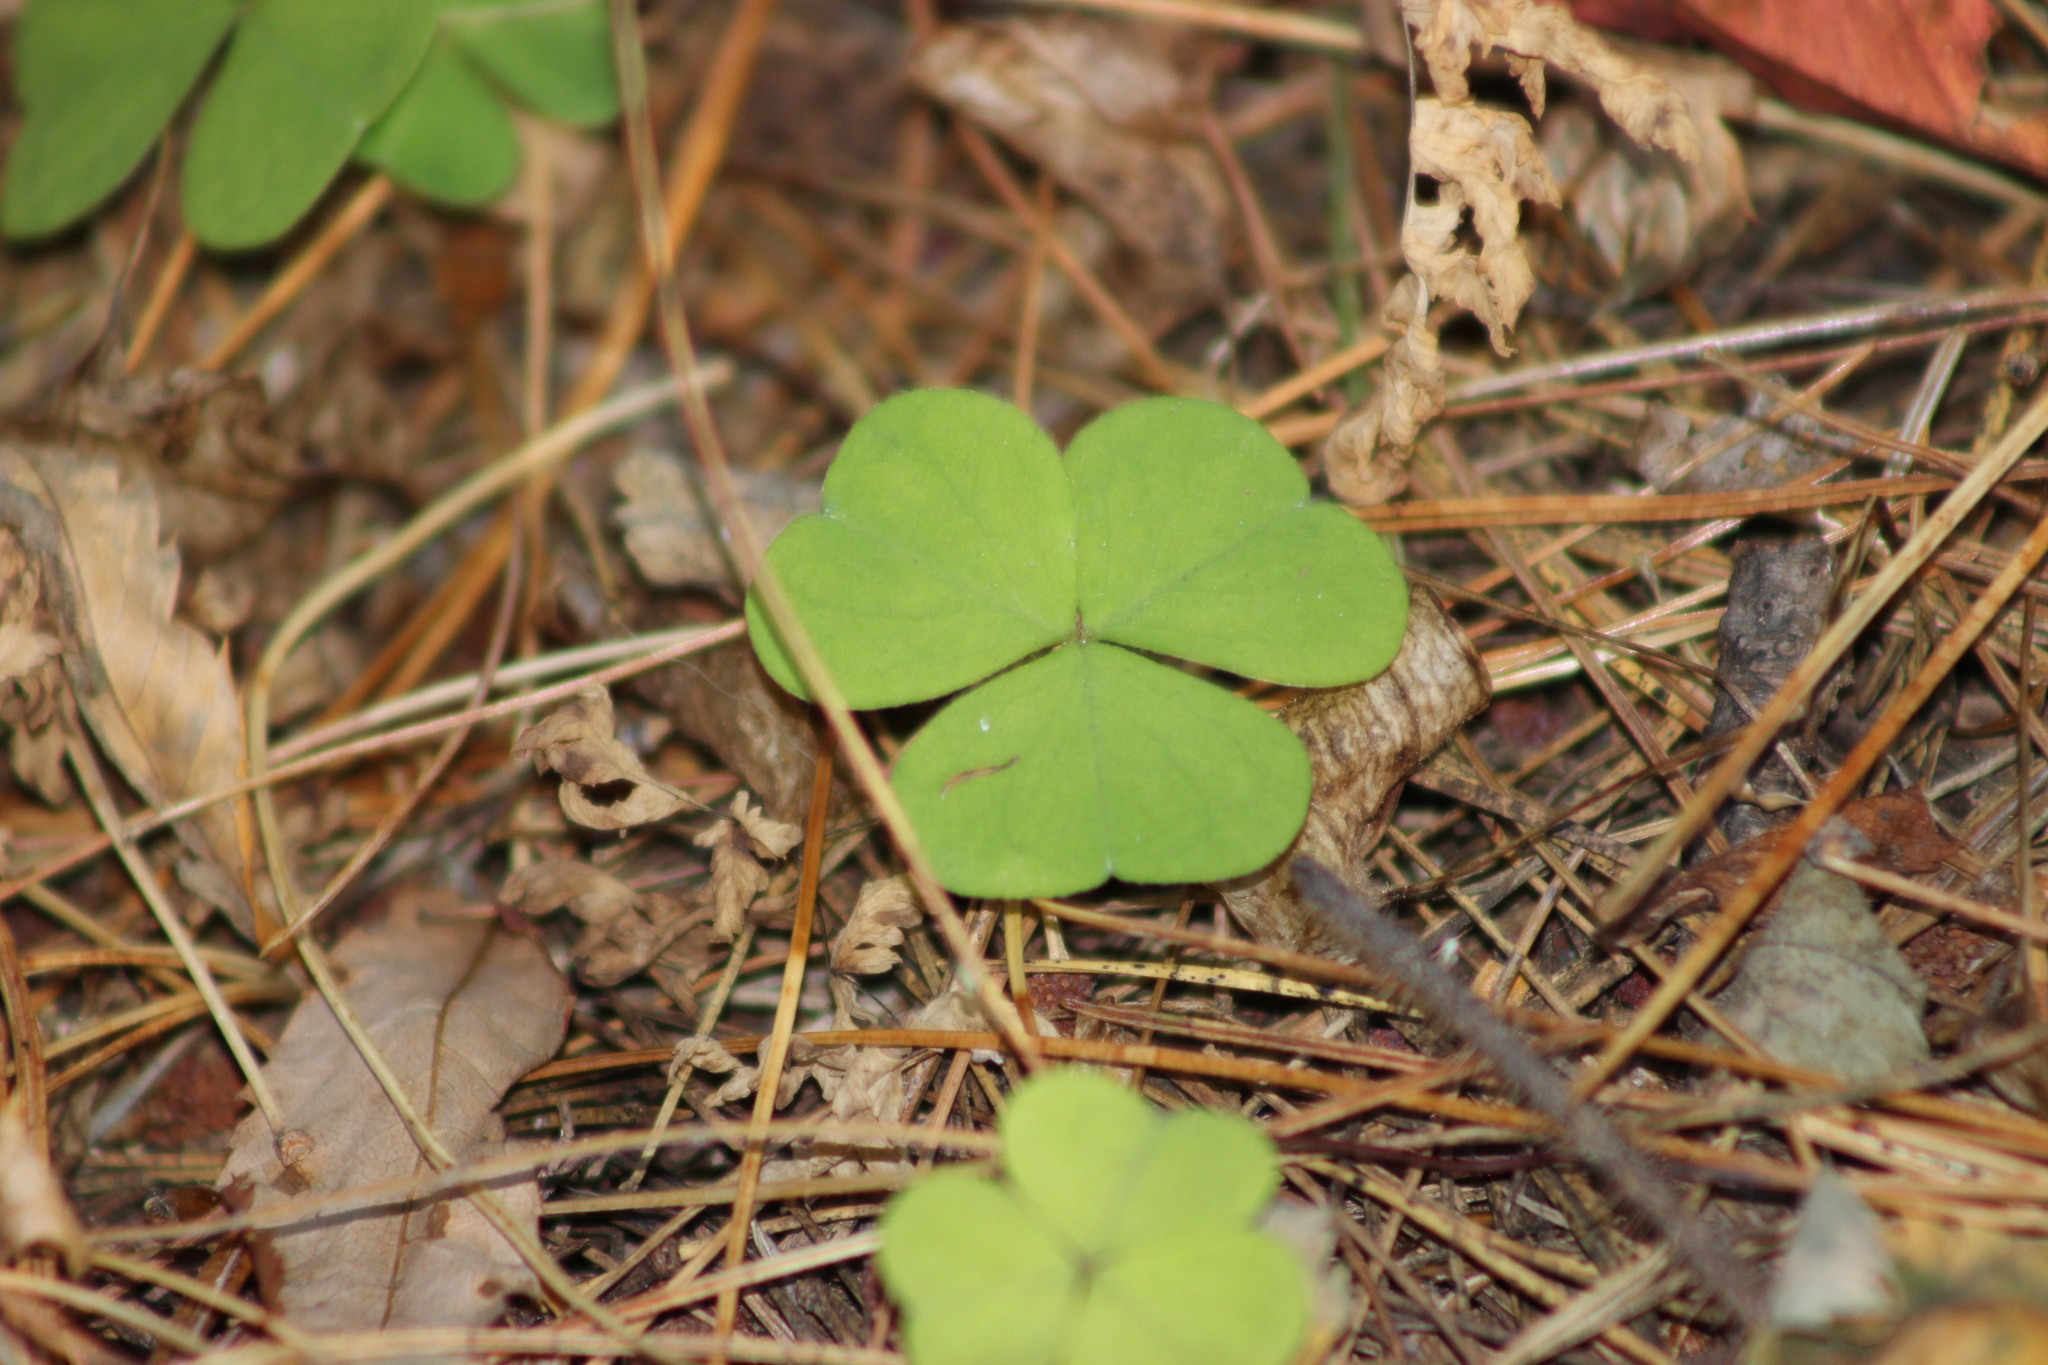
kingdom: Plantae
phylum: Tracheophyta
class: Magnoliopsida
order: Oxalidales
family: Oxalidaceae
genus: Oxalis
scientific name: Oxalis acetosella
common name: Wood-sorrel
